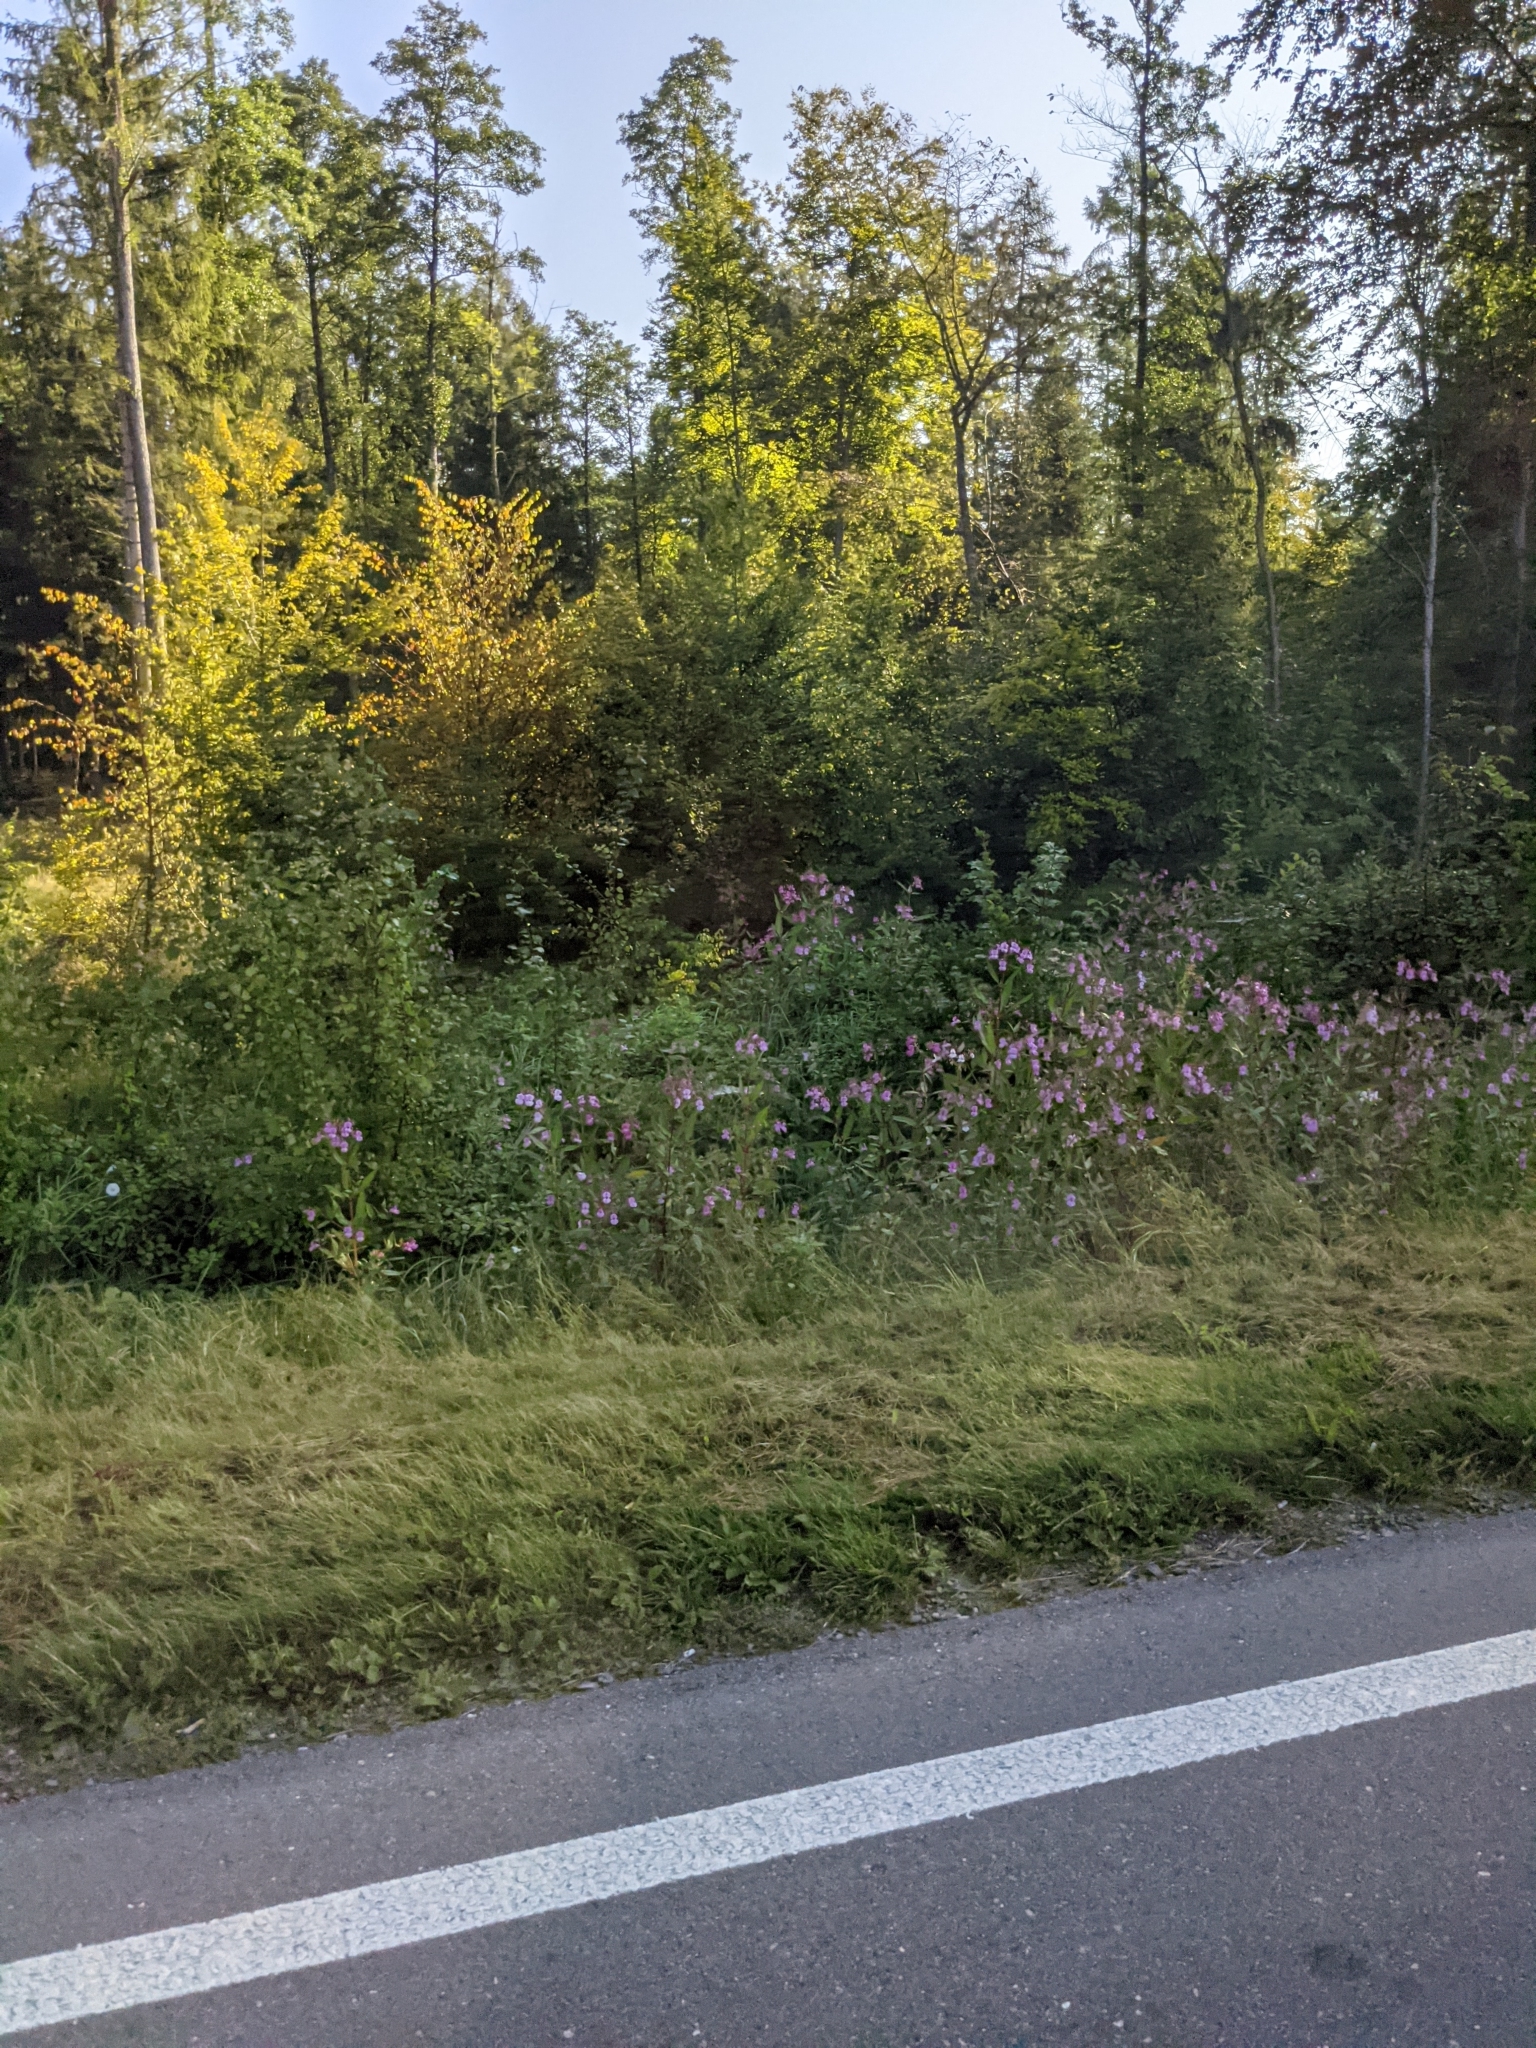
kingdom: Plantae
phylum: Tracheophyta
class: Magnoliopsida
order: Ericales
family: Balsaminaceae
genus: Impatiens
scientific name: Impatiens glandulifera
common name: Himalayan balsam
